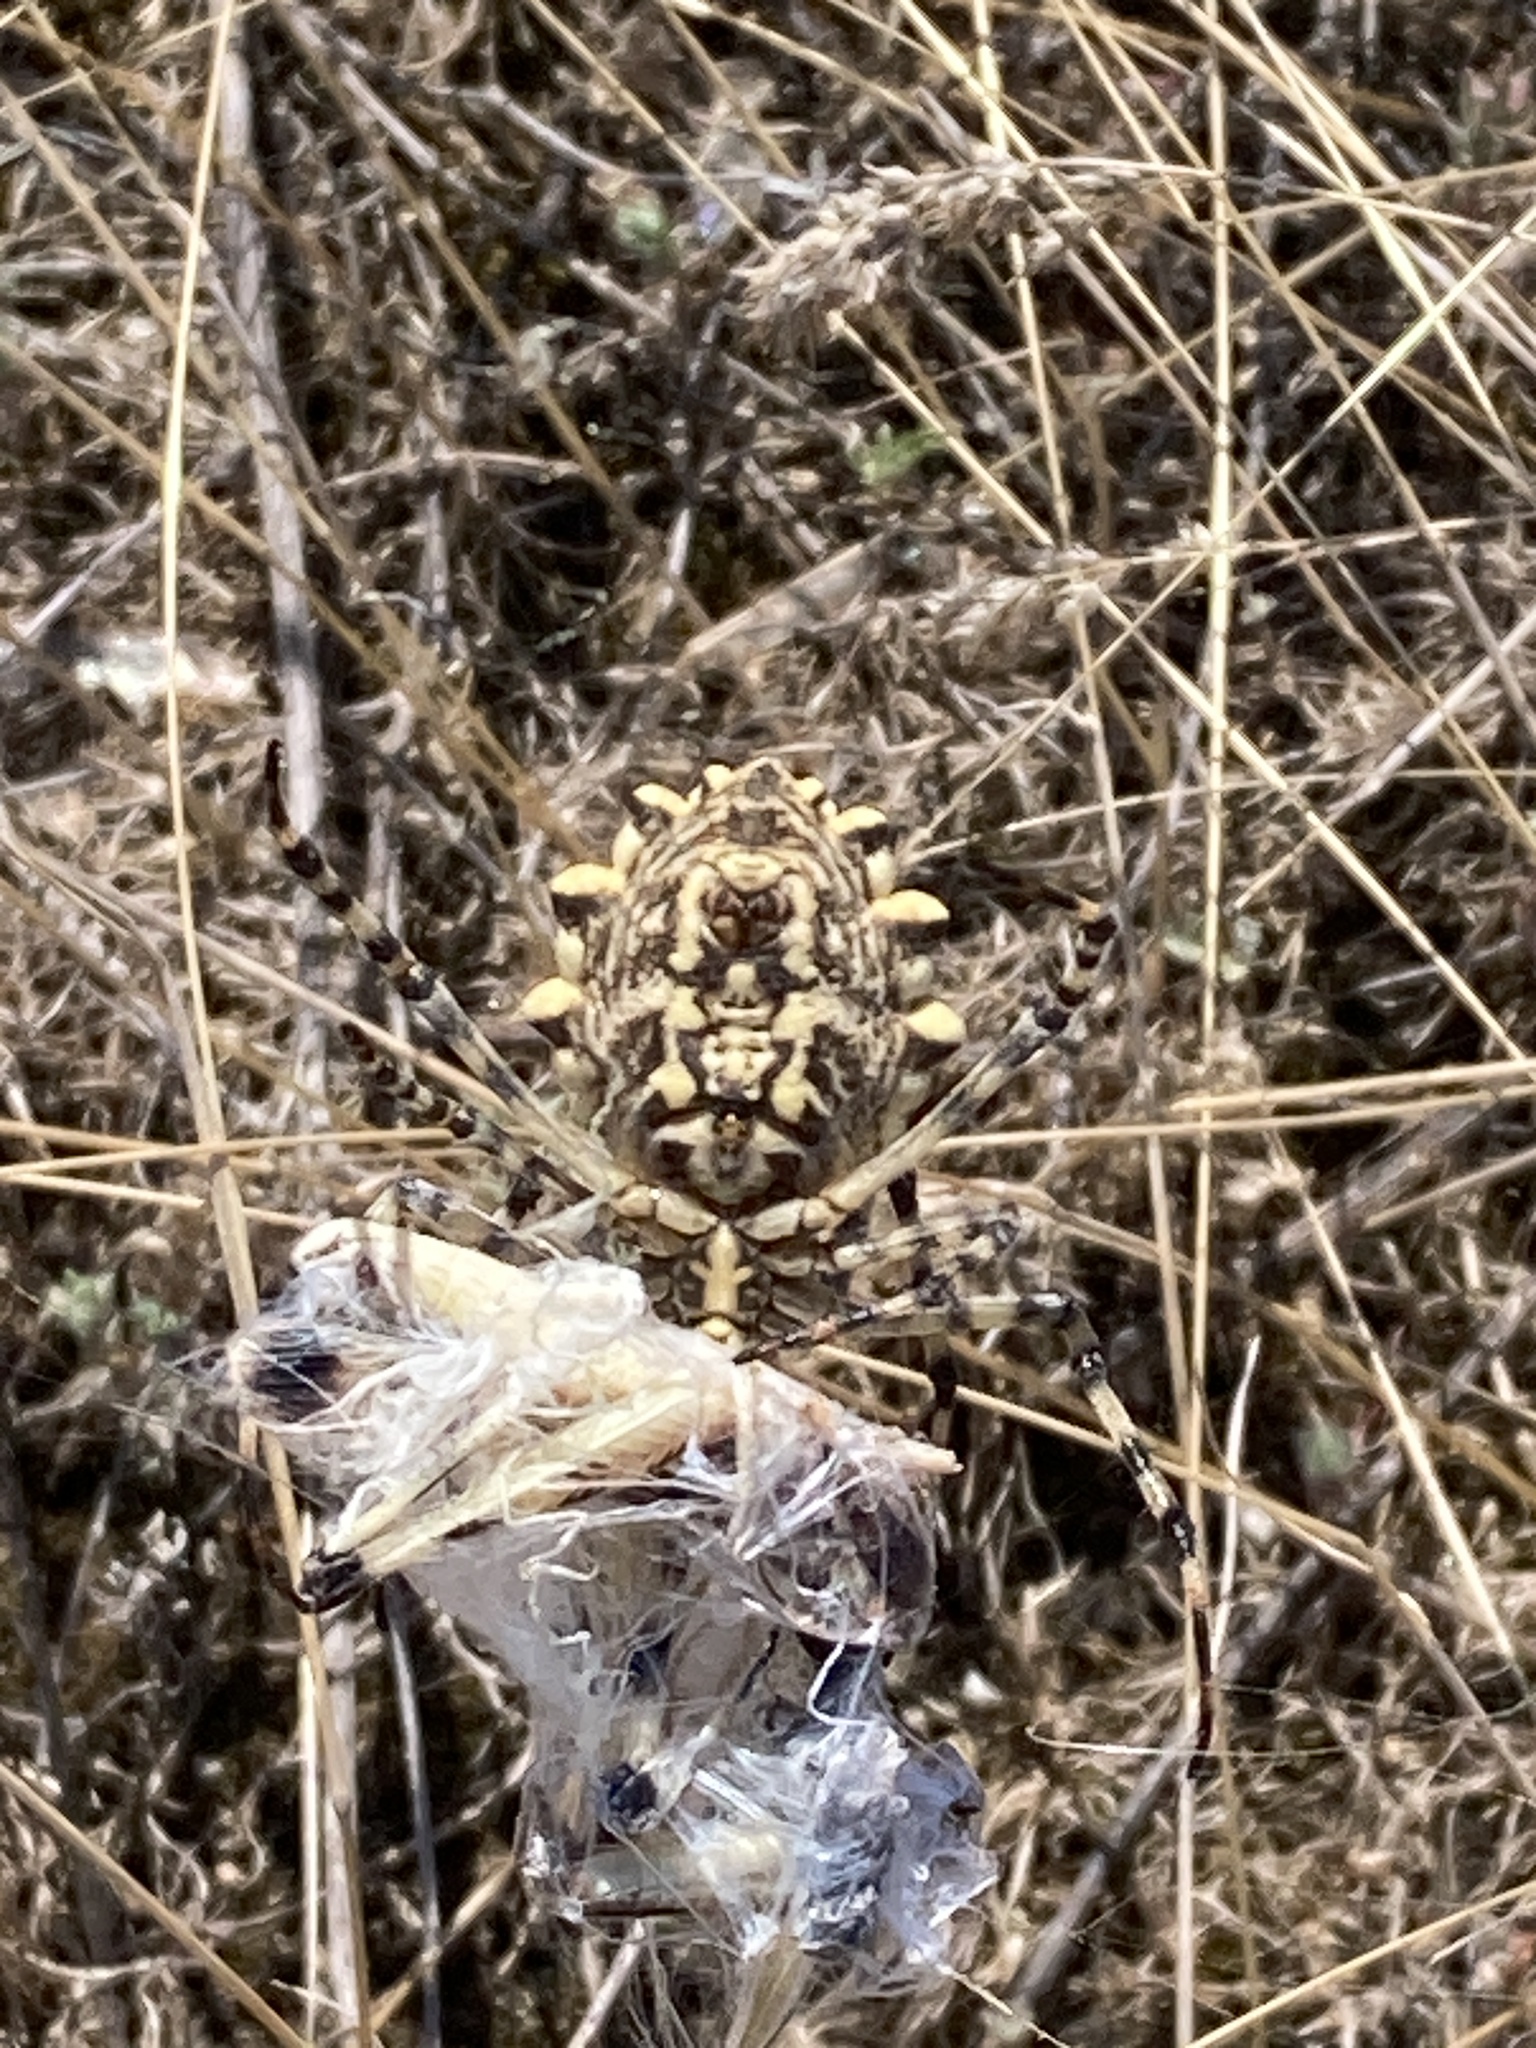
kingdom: Animalia
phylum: Arthropoda
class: Arachnida
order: Araneae
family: Araneidae
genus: Argiope
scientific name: Argiope lobata
